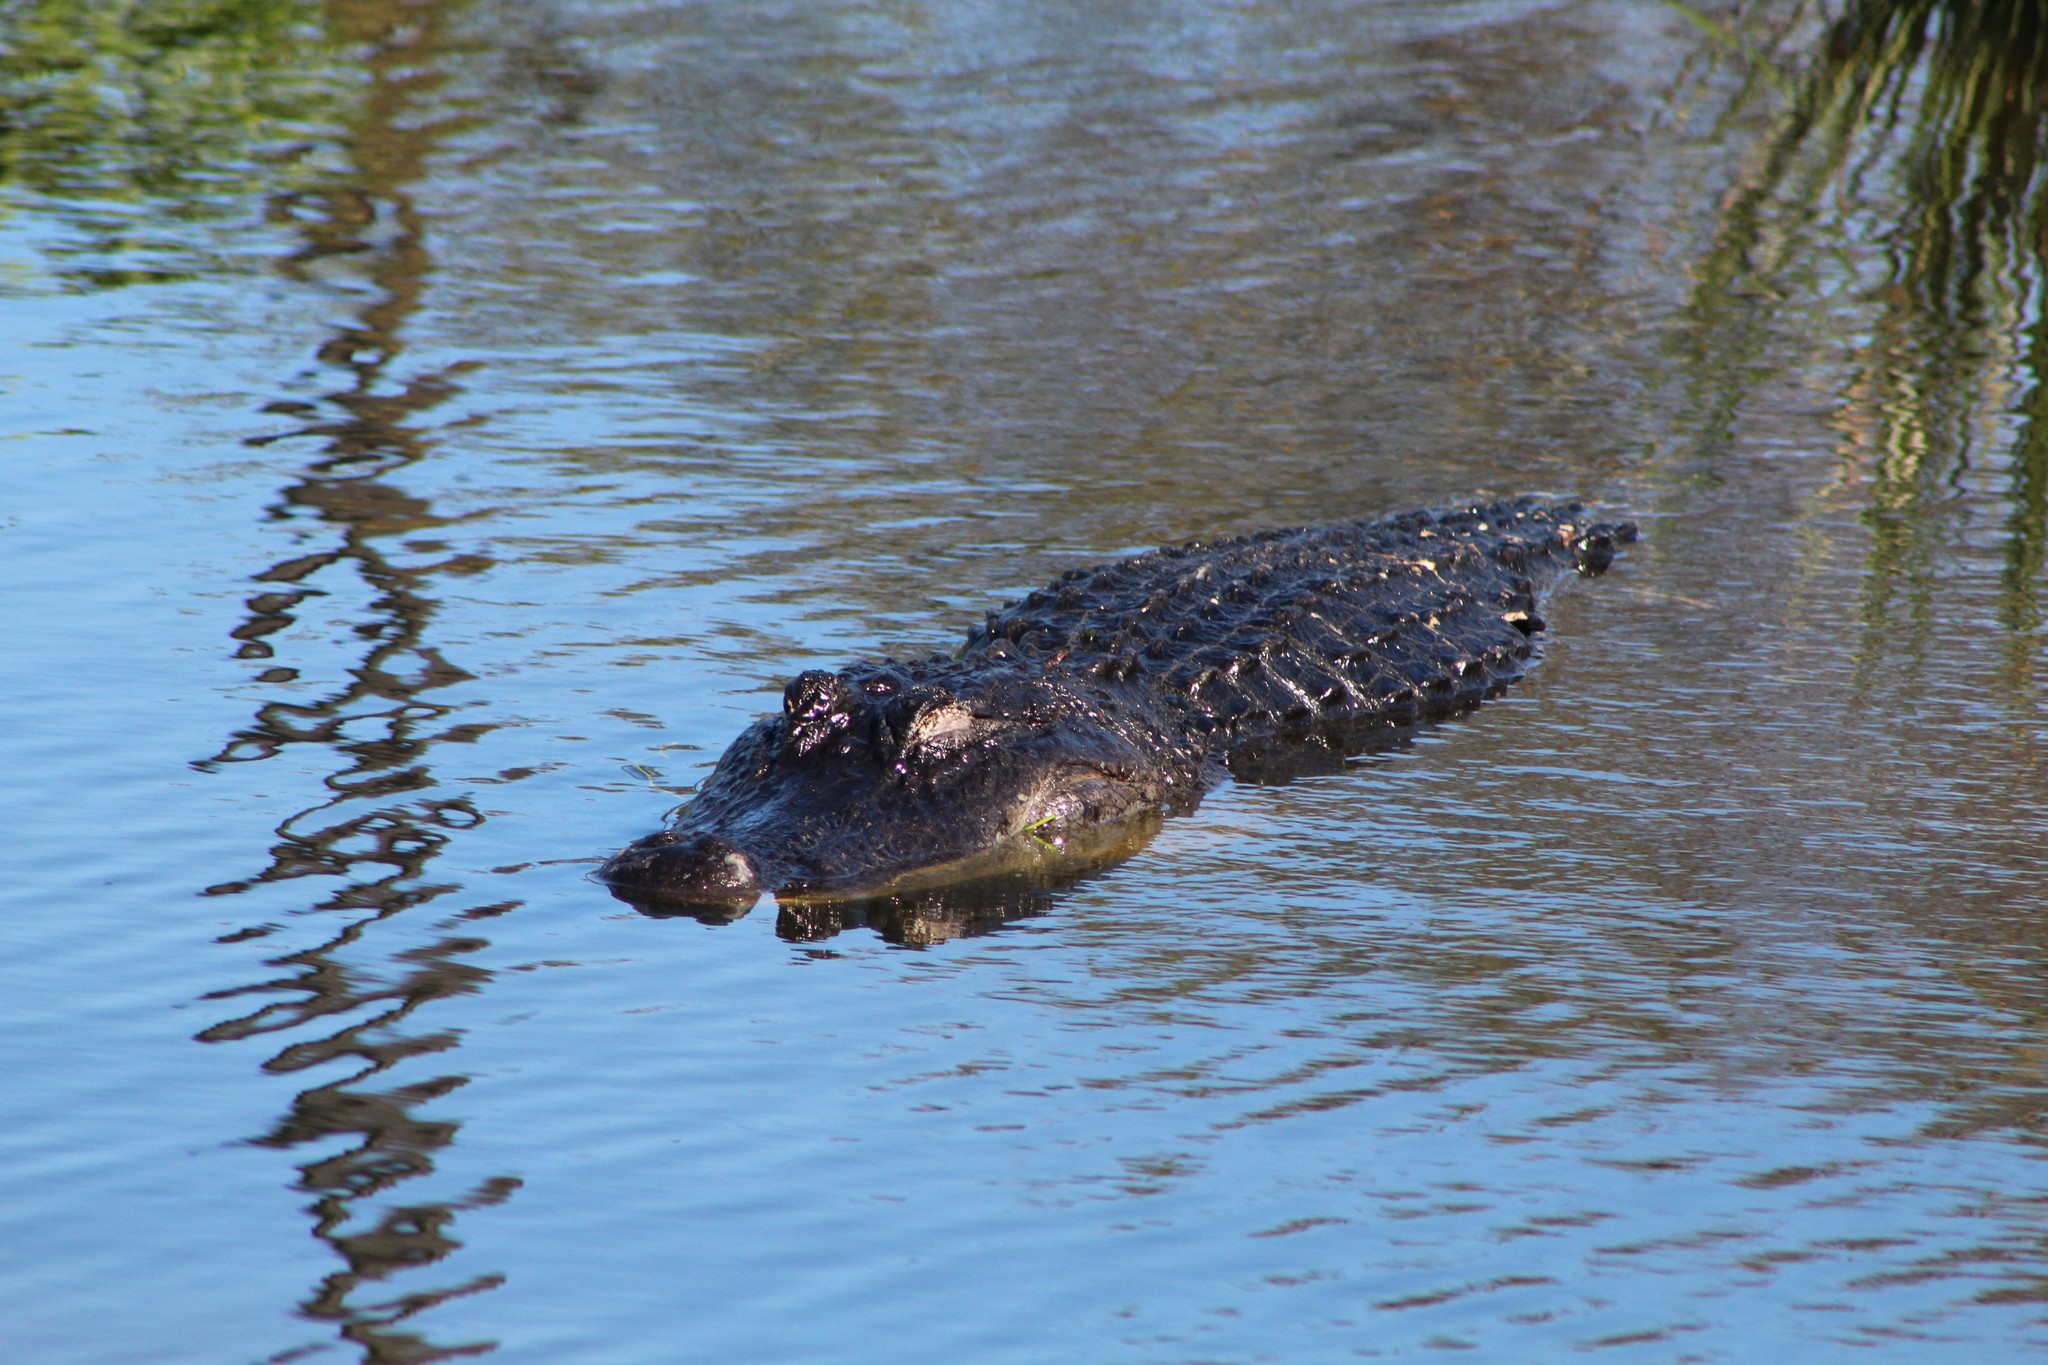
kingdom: Animalia
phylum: Chordata
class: Crocodylia
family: Alligatoridae
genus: Alligator
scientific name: Alligator mississippiensis
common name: American alligator
